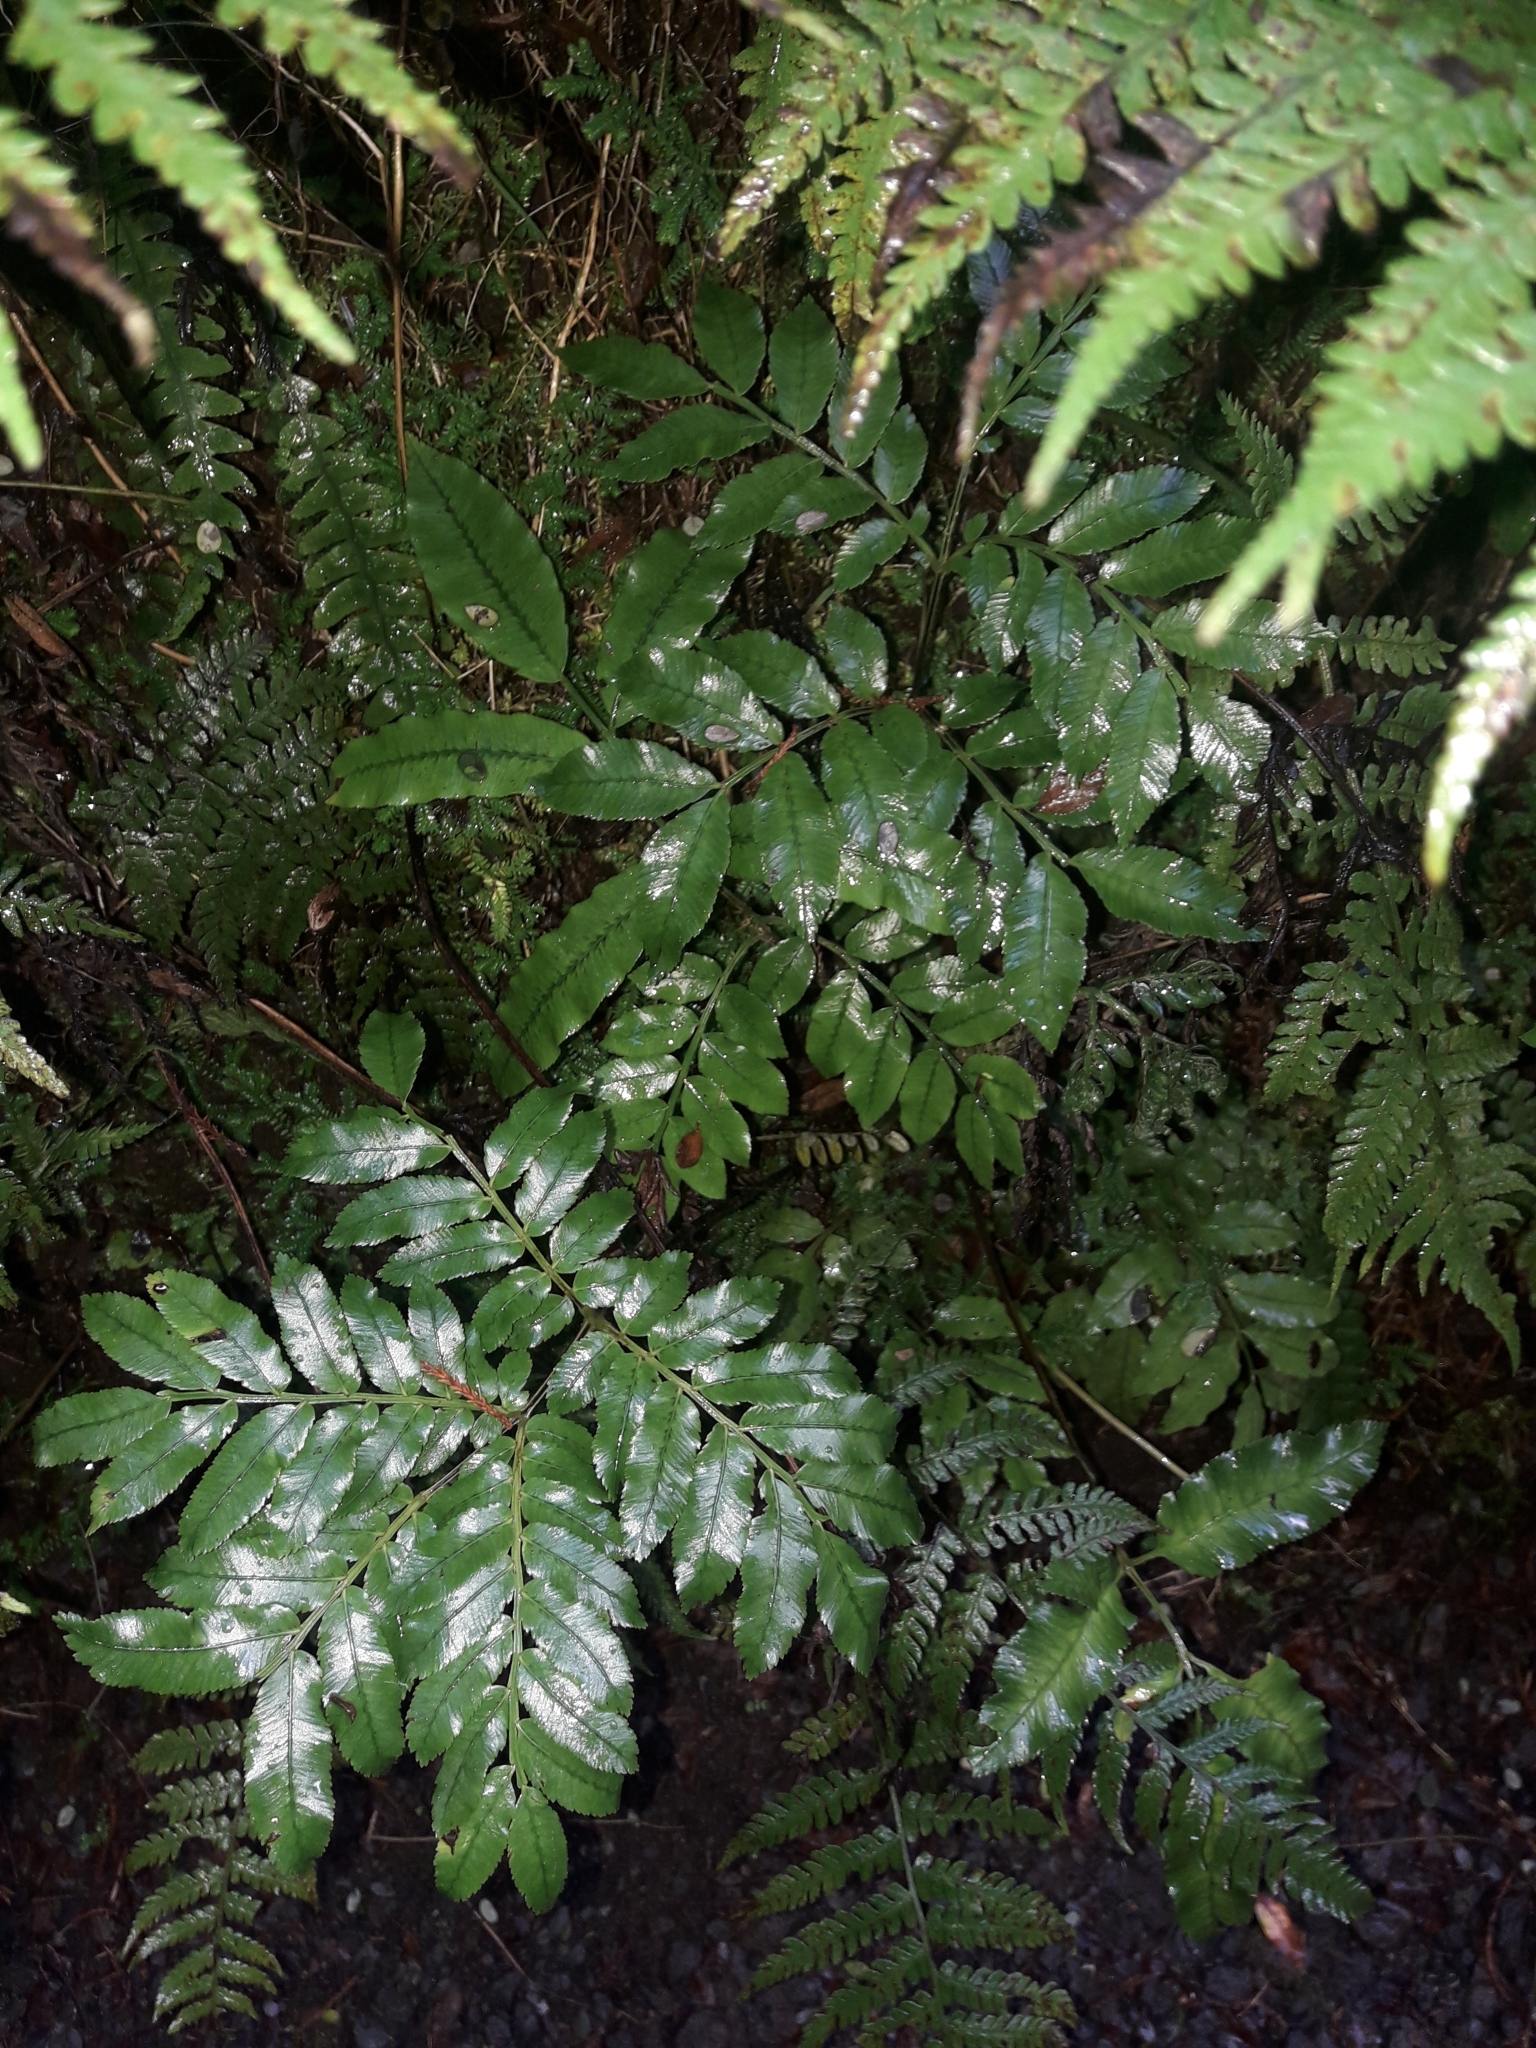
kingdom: Plantae
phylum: Tracheophyta
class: Polypodiopsida
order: Marattiales
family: Marattiaceae
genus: Ptisana
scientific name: Ptisana salicina
